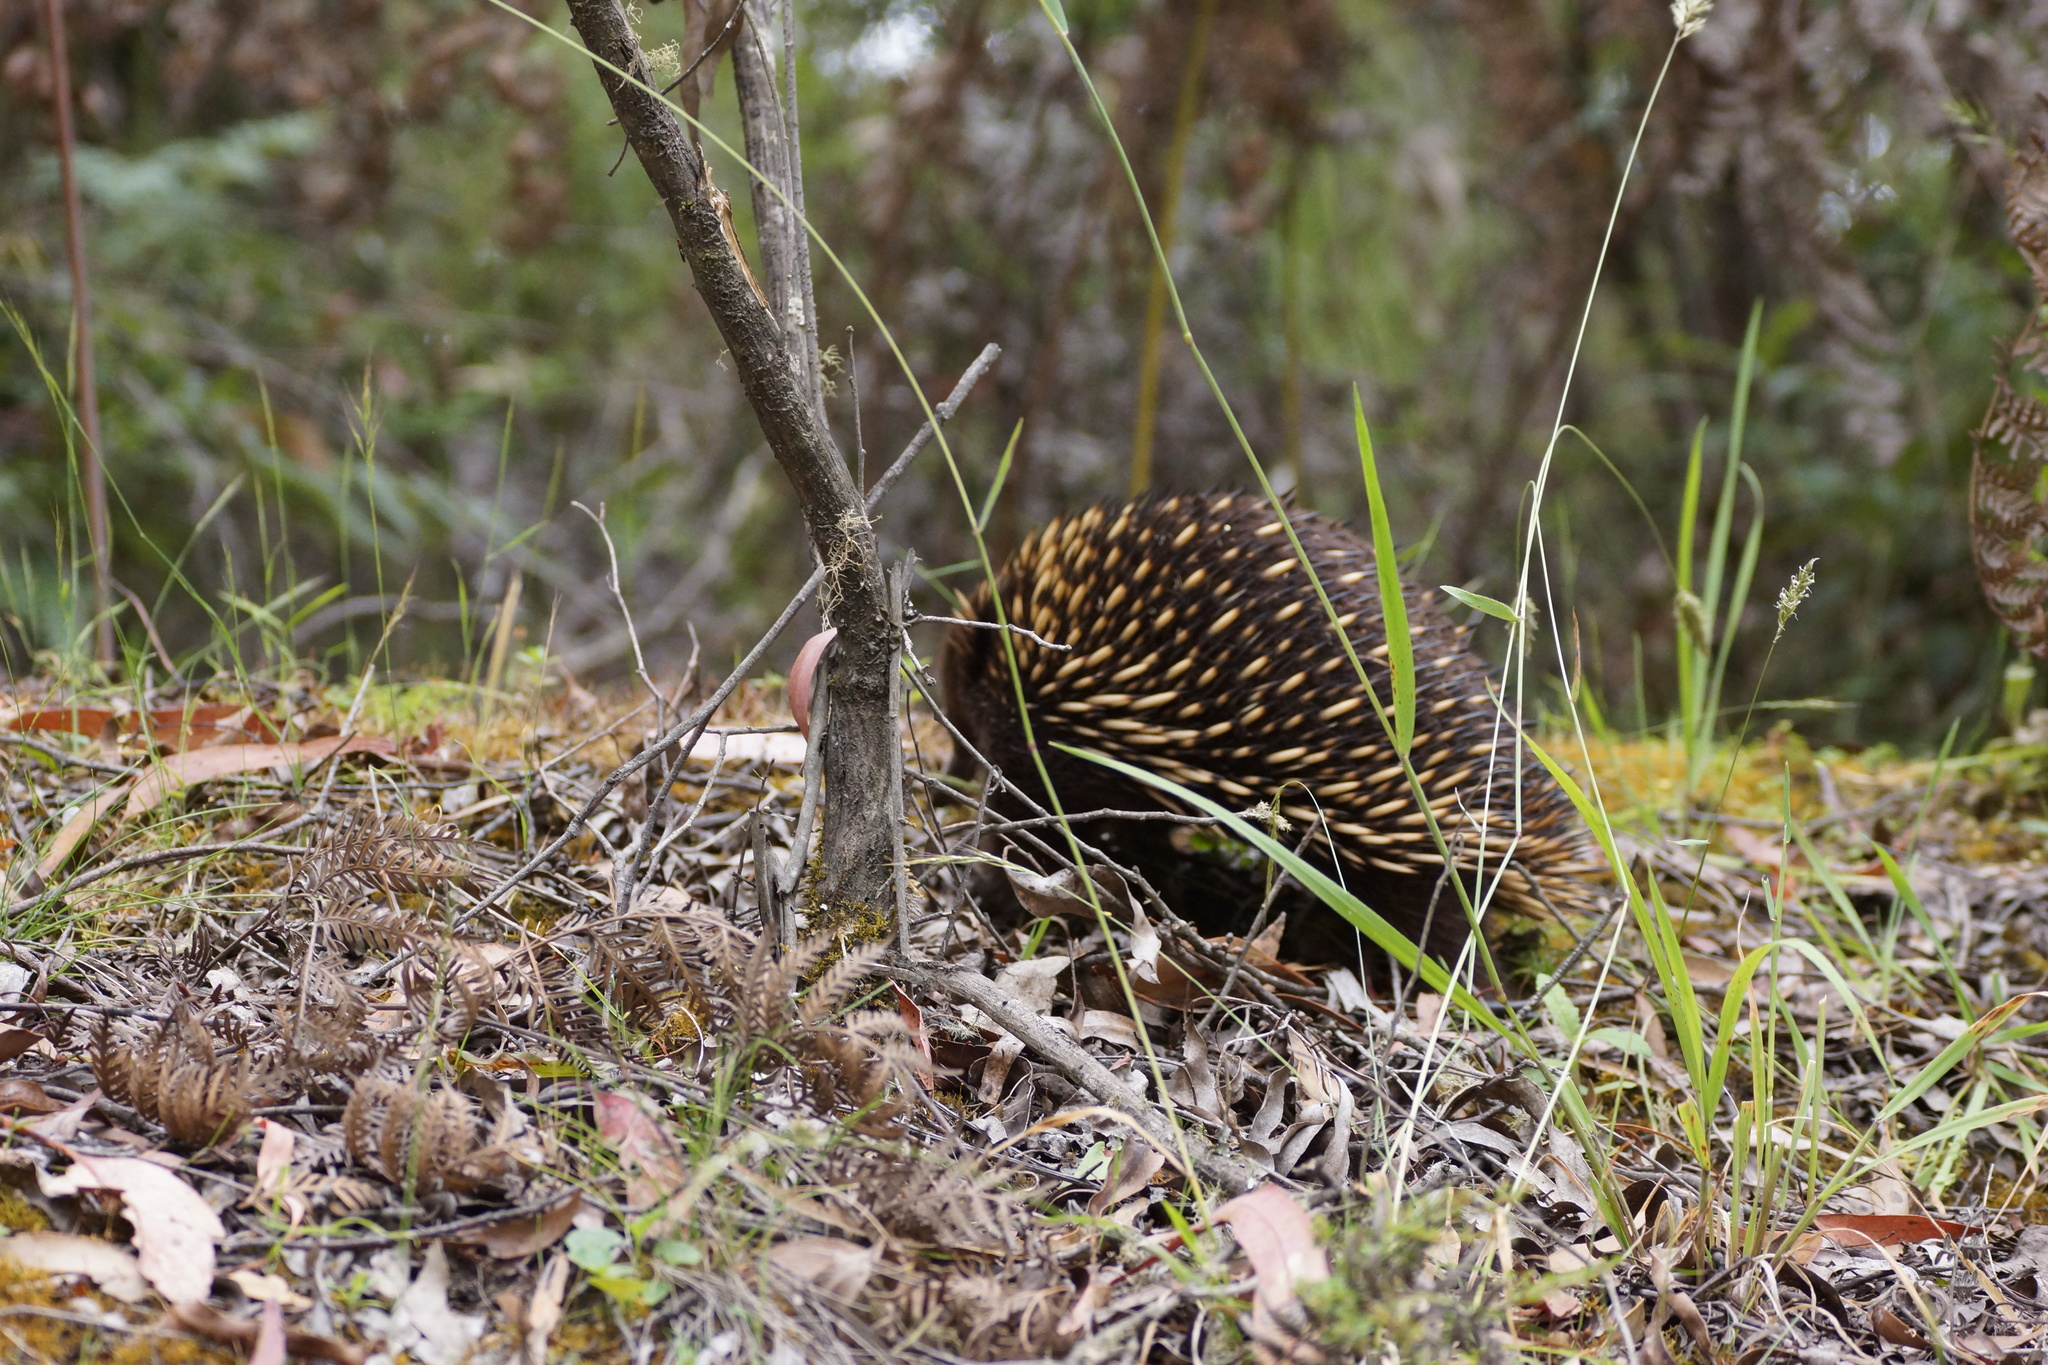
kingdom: Animalia
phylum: Chordata
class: Mammalia
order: Monotremata
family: Tachyglossidae
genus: Tachyglossus
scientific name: Tachyglossus aculeatus
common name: Short-beaked echidna
